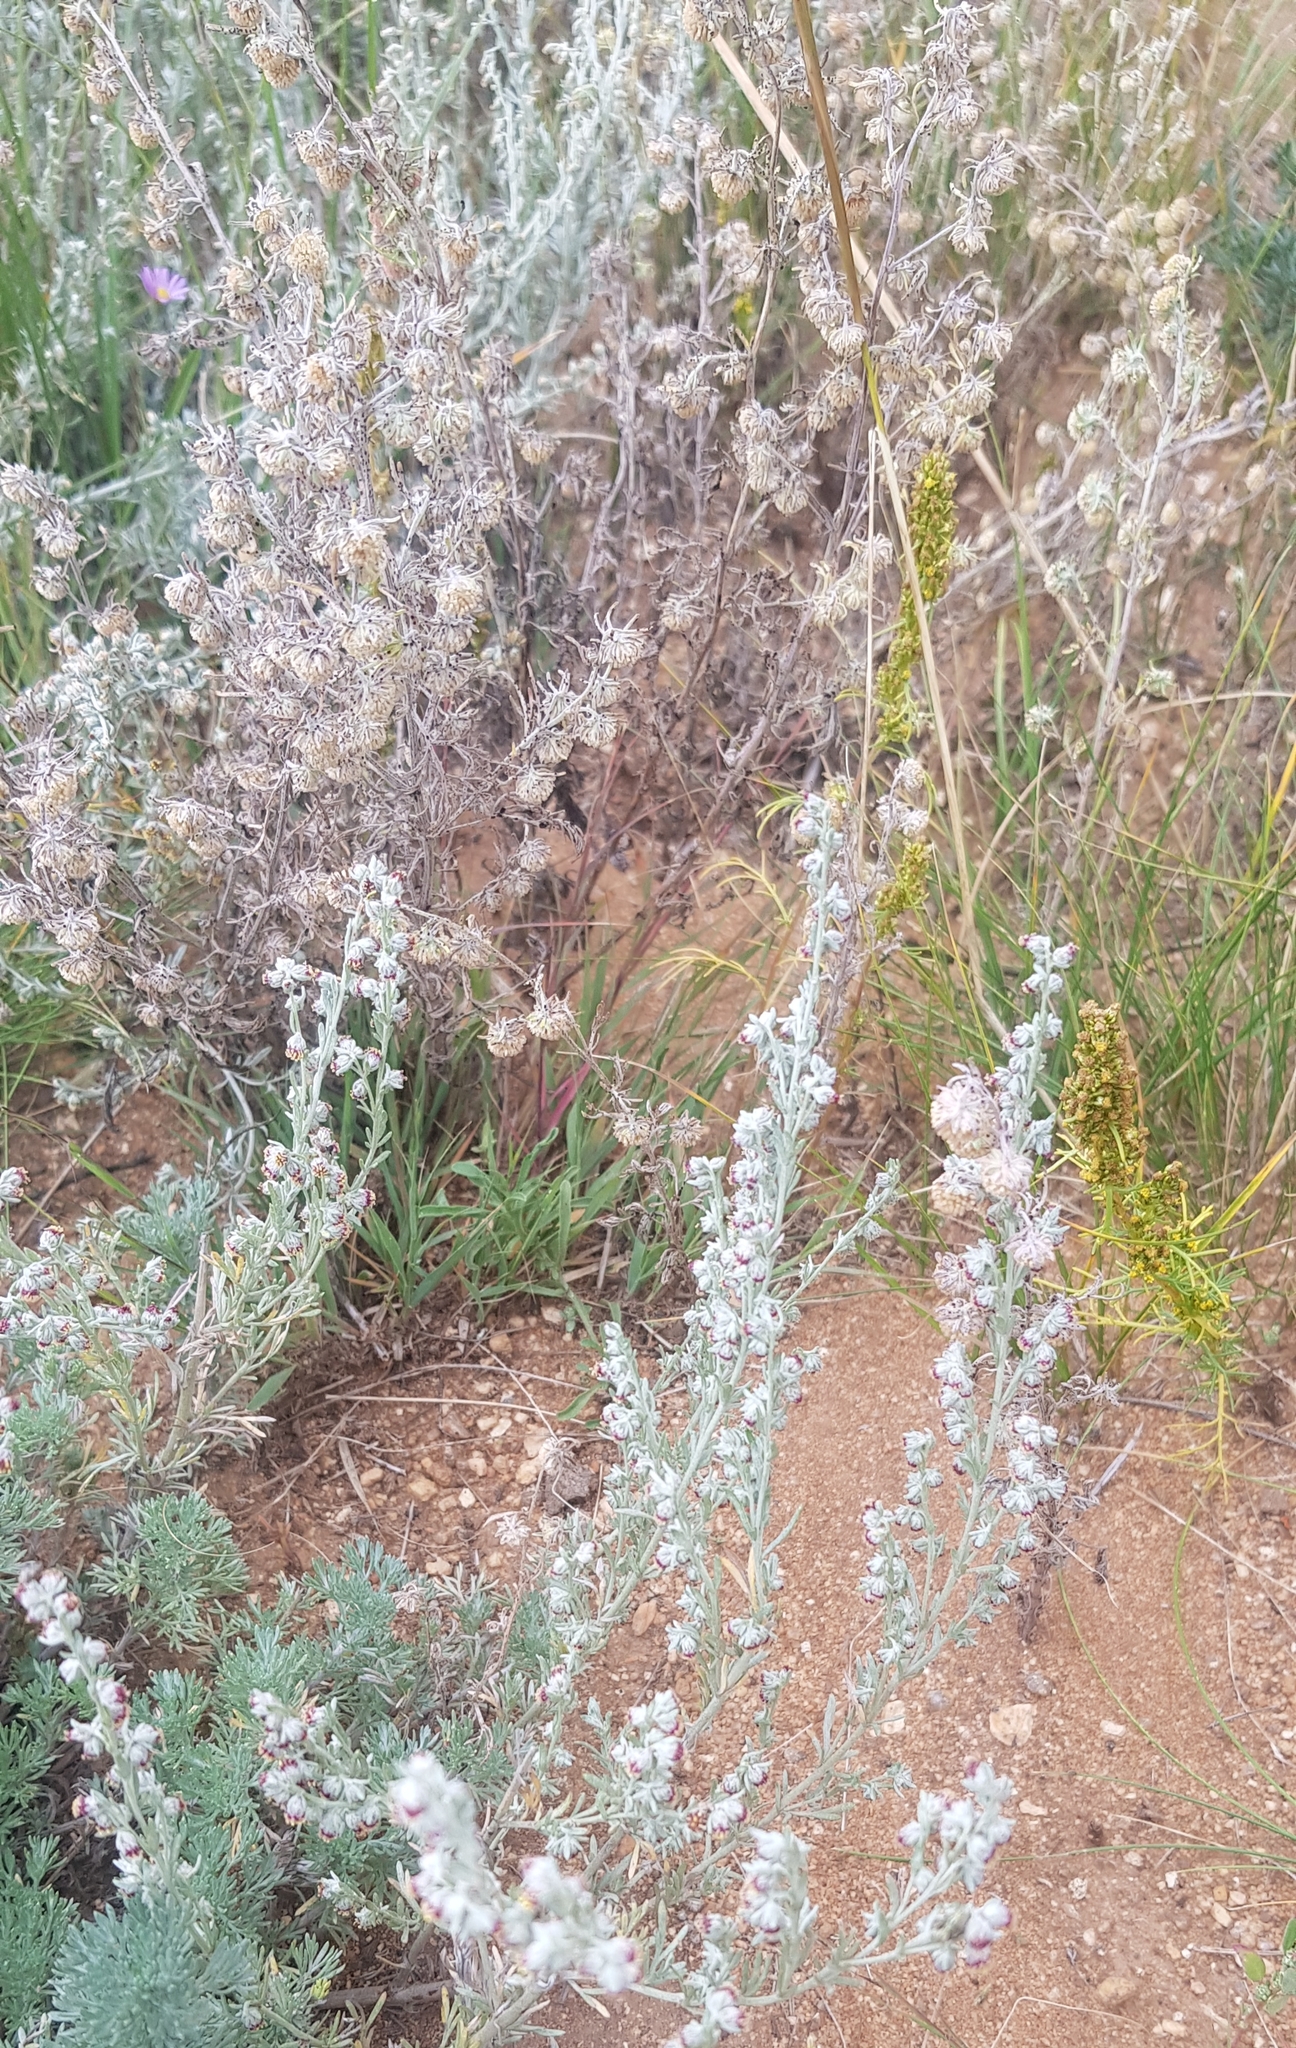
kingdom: Plantae
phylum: Tracheophyta
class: Magnoliopsida
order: Asterales
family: Asteraceae
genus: Artemisia
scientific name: Artemisia frigida
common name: Prairie sagewort
